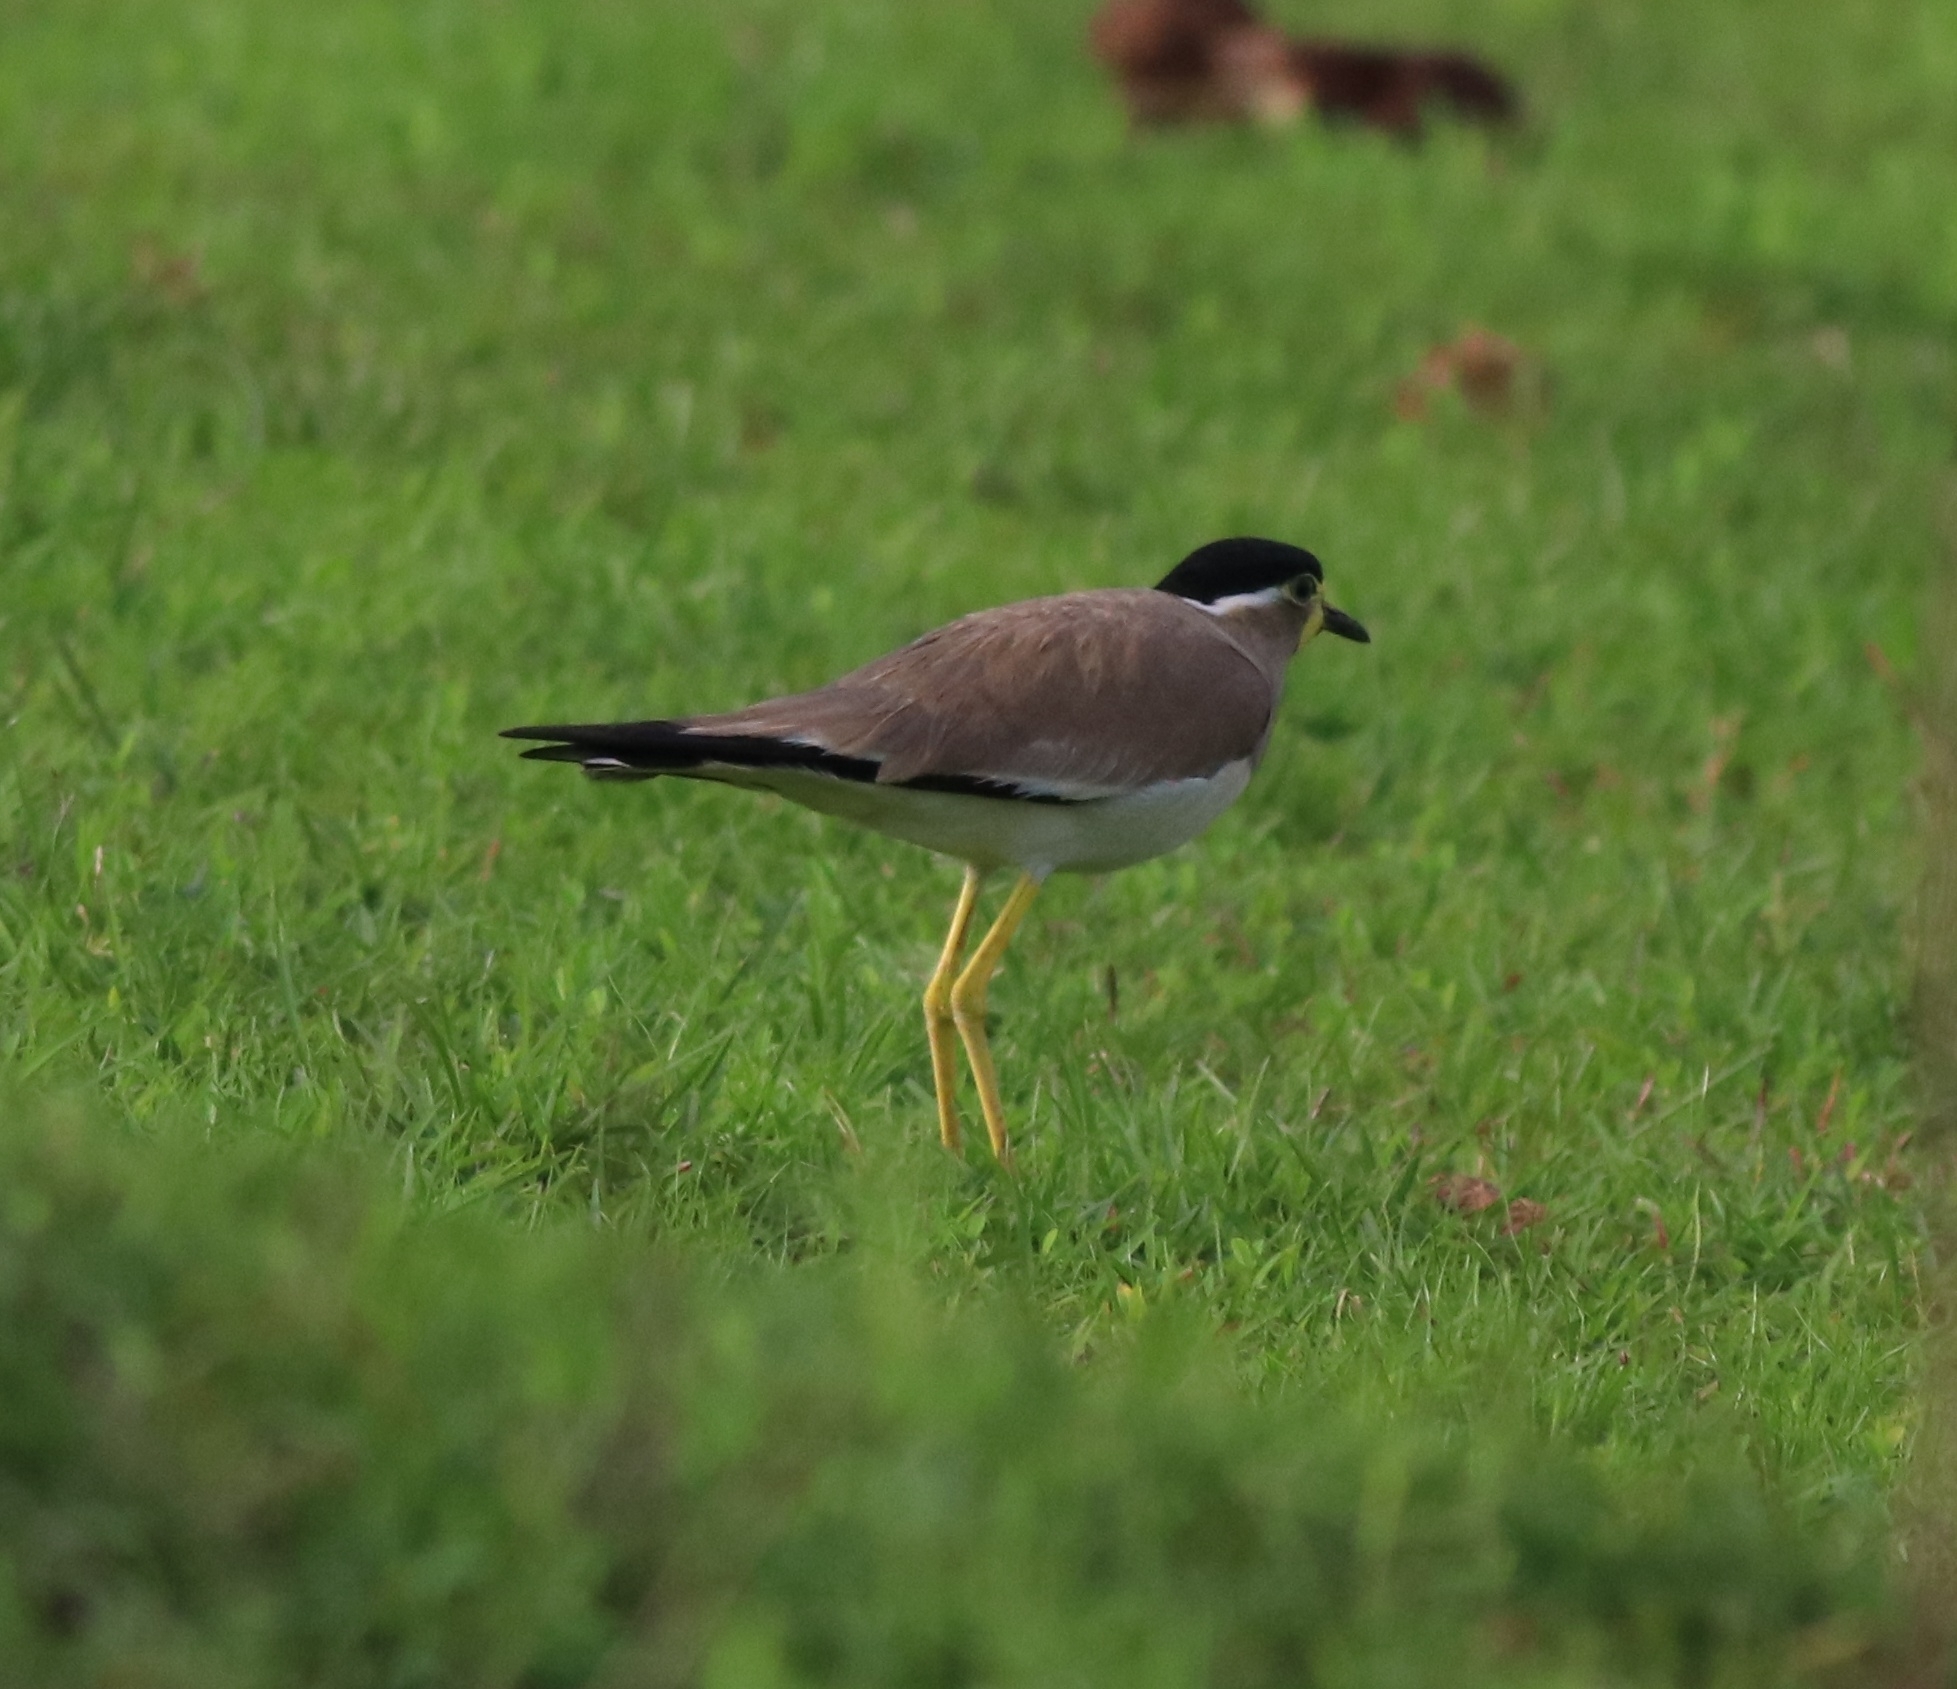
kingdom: Animalia
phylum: Chordata
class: Aves
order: Charadriiformes
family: Charadriidae
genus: Vanellus
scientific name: Vanellus malabaricus
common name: Yellow-wattled lapwing
